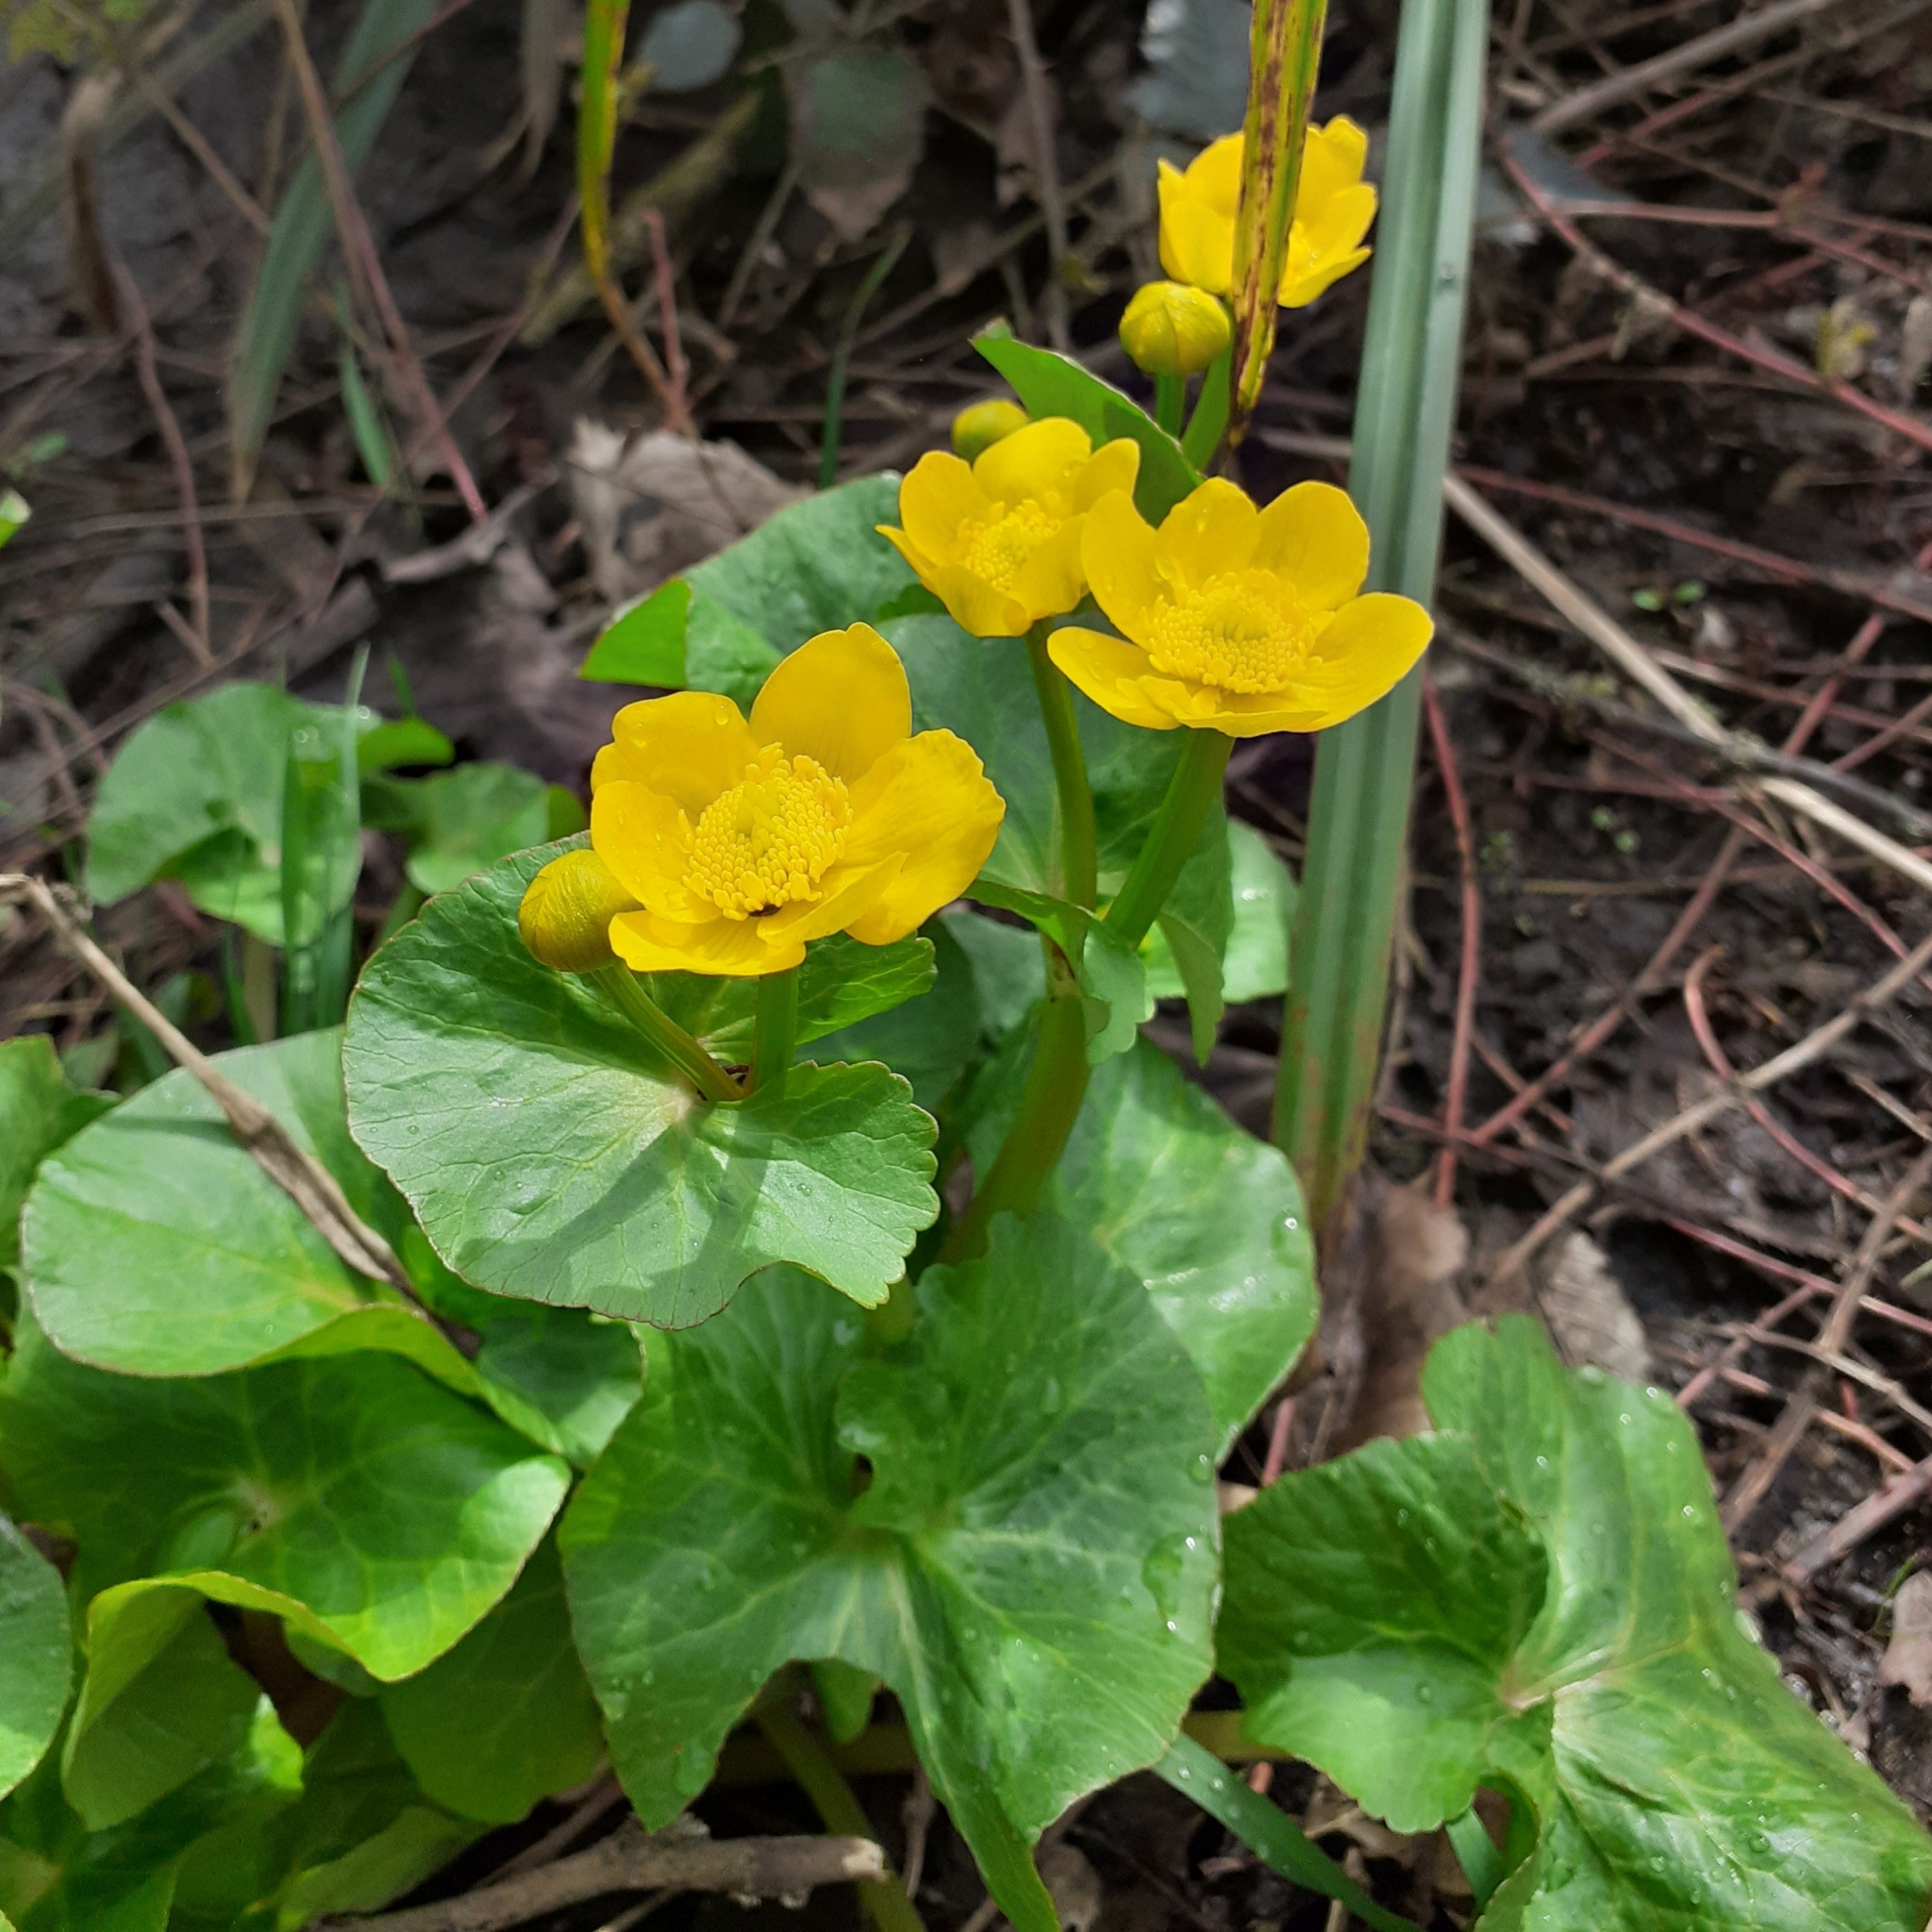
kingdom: Plantae
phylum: Tracheophyta
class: Magnoliopsida
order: Ranunculales
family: Ranunculaceae
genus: Caltha
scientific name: Caltha palustris
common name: Marsh marigold
